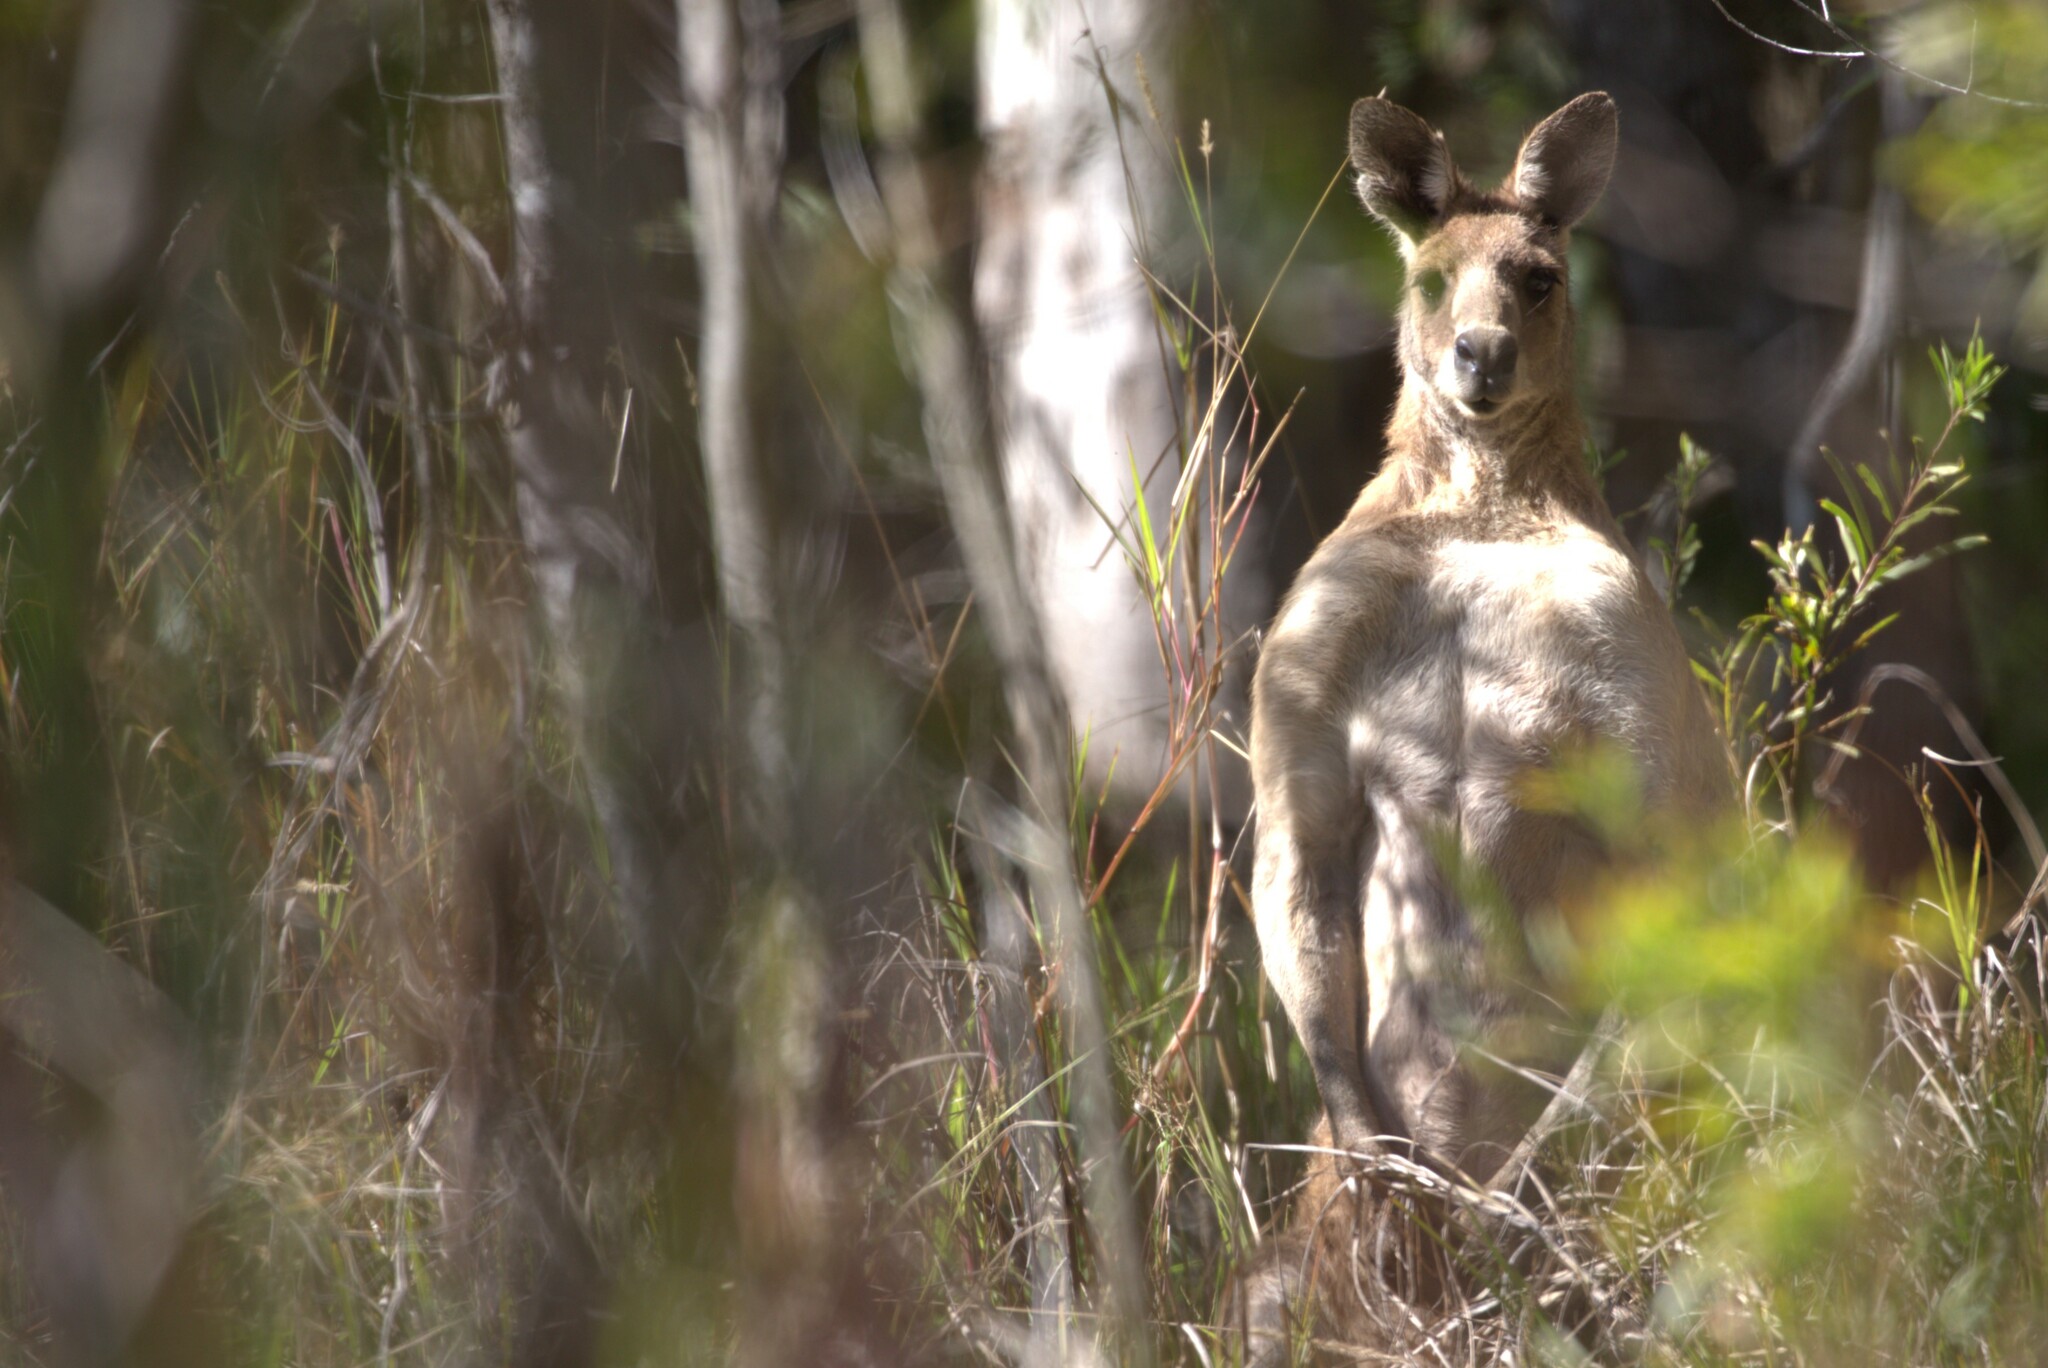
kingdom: Animalia
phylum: Chordata
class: Mammalia
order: Diprotodontia
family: Macropodidae
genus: Macropus
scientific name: Macropus giganteus
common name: Eastern grey kangaroo
